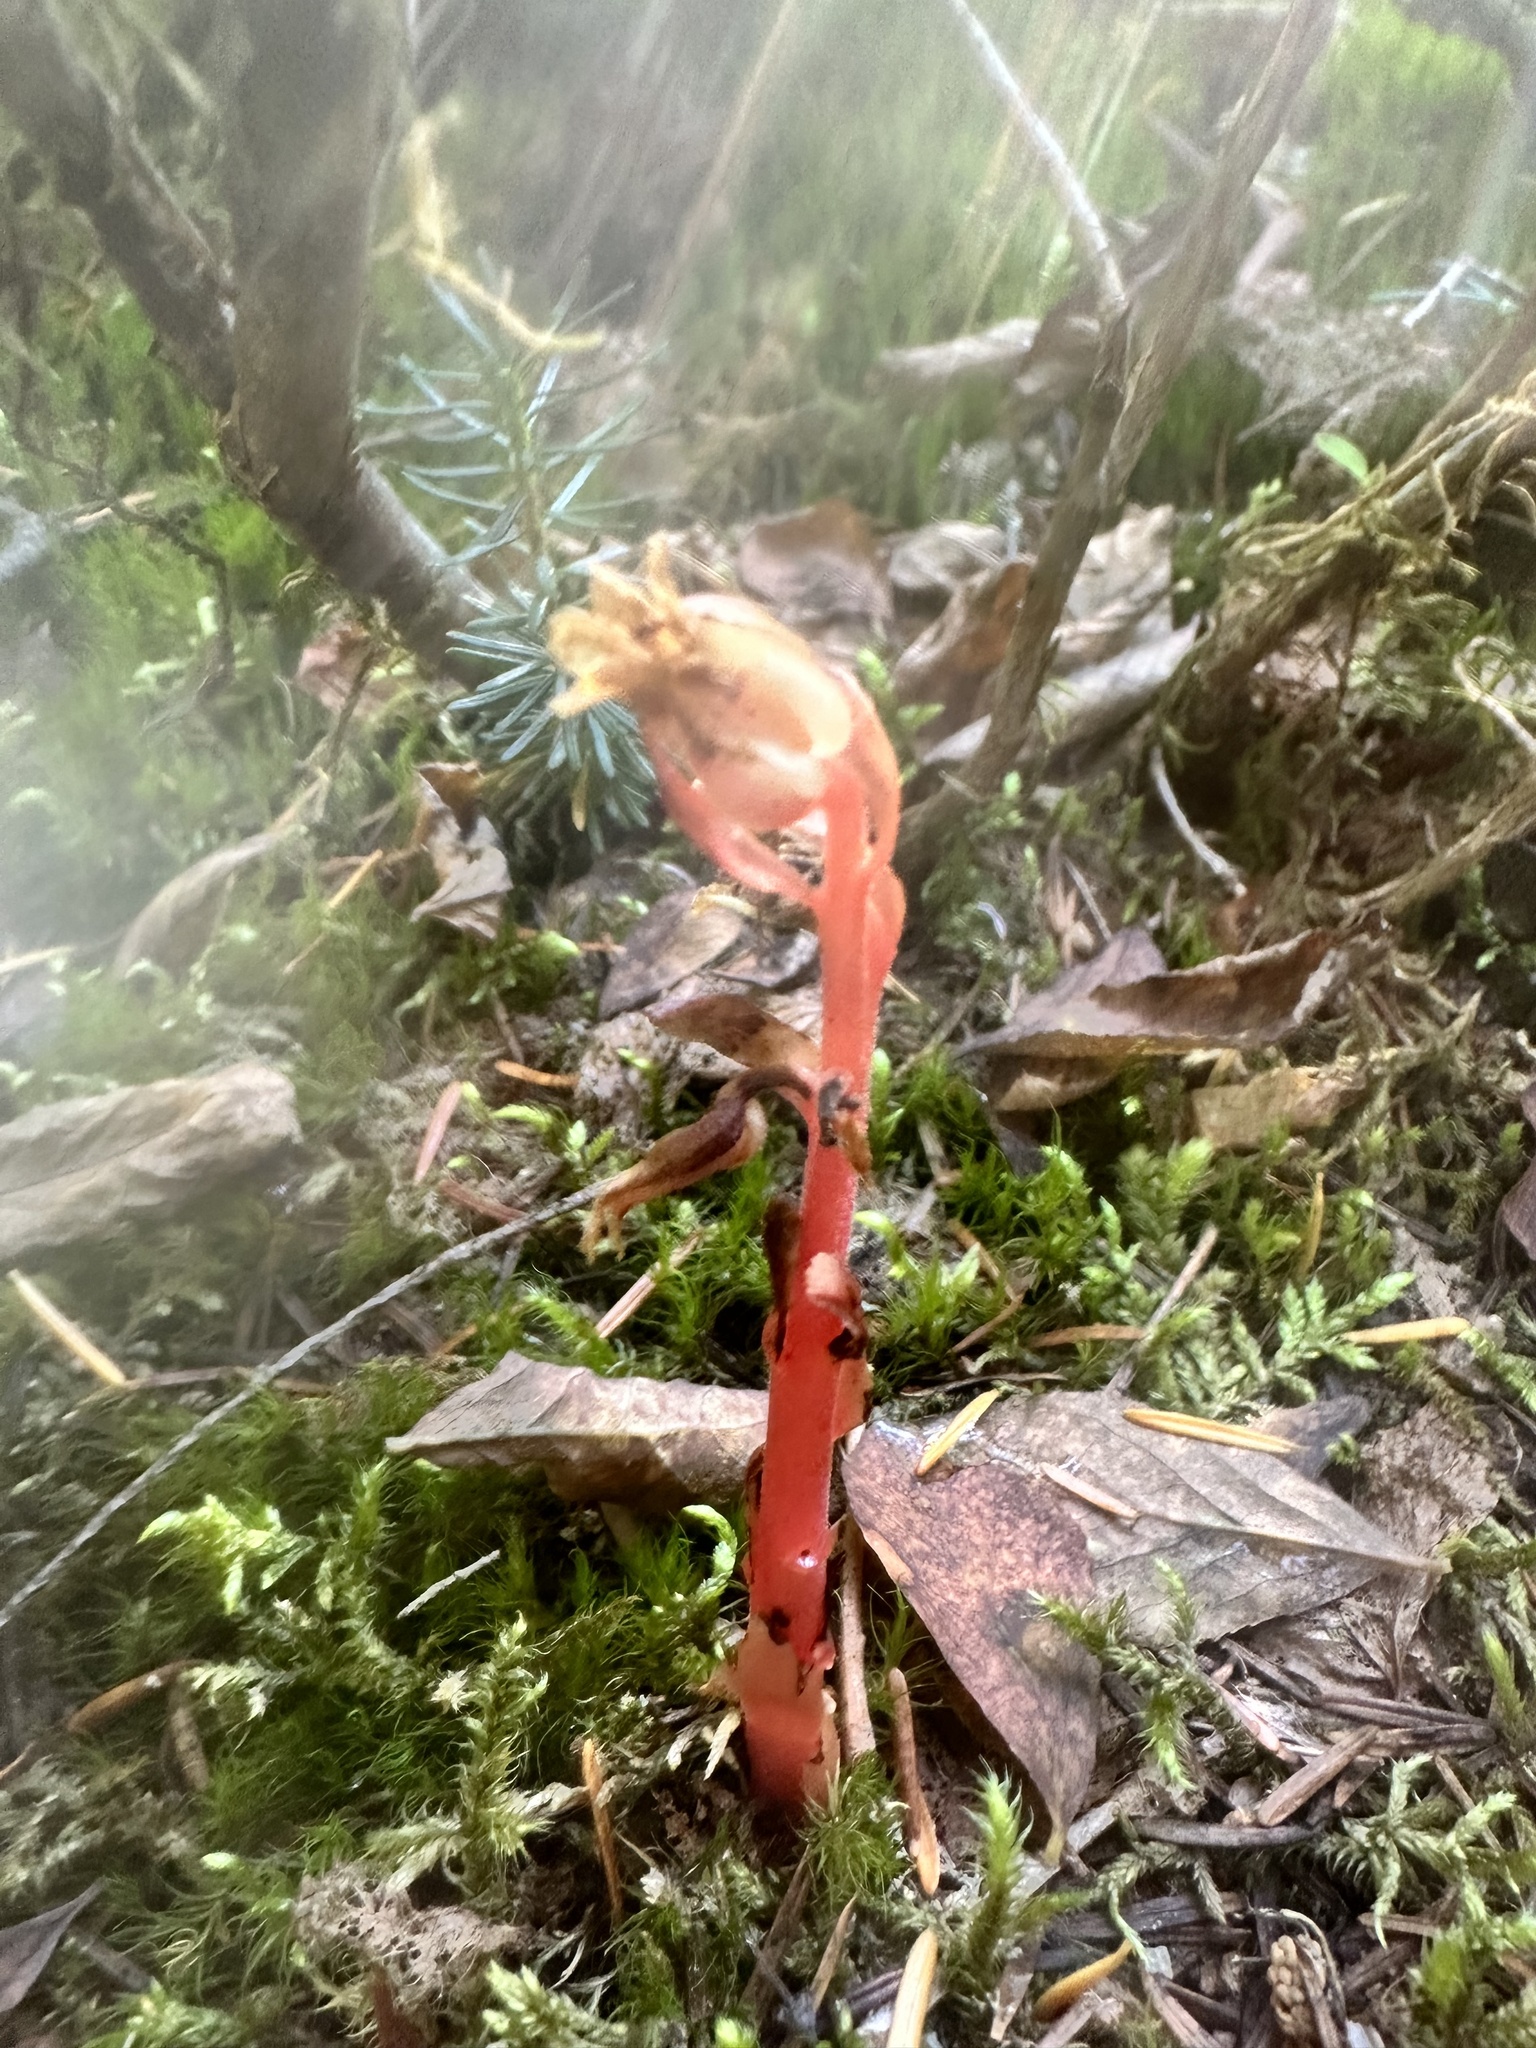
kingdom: Plantae
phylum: Tracheophyta
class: Magnoliopsida
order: Ericales
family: Ericaceae
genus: Hypopitys
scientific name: Hypopitys monotropa
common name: Yellow bird's-nest
